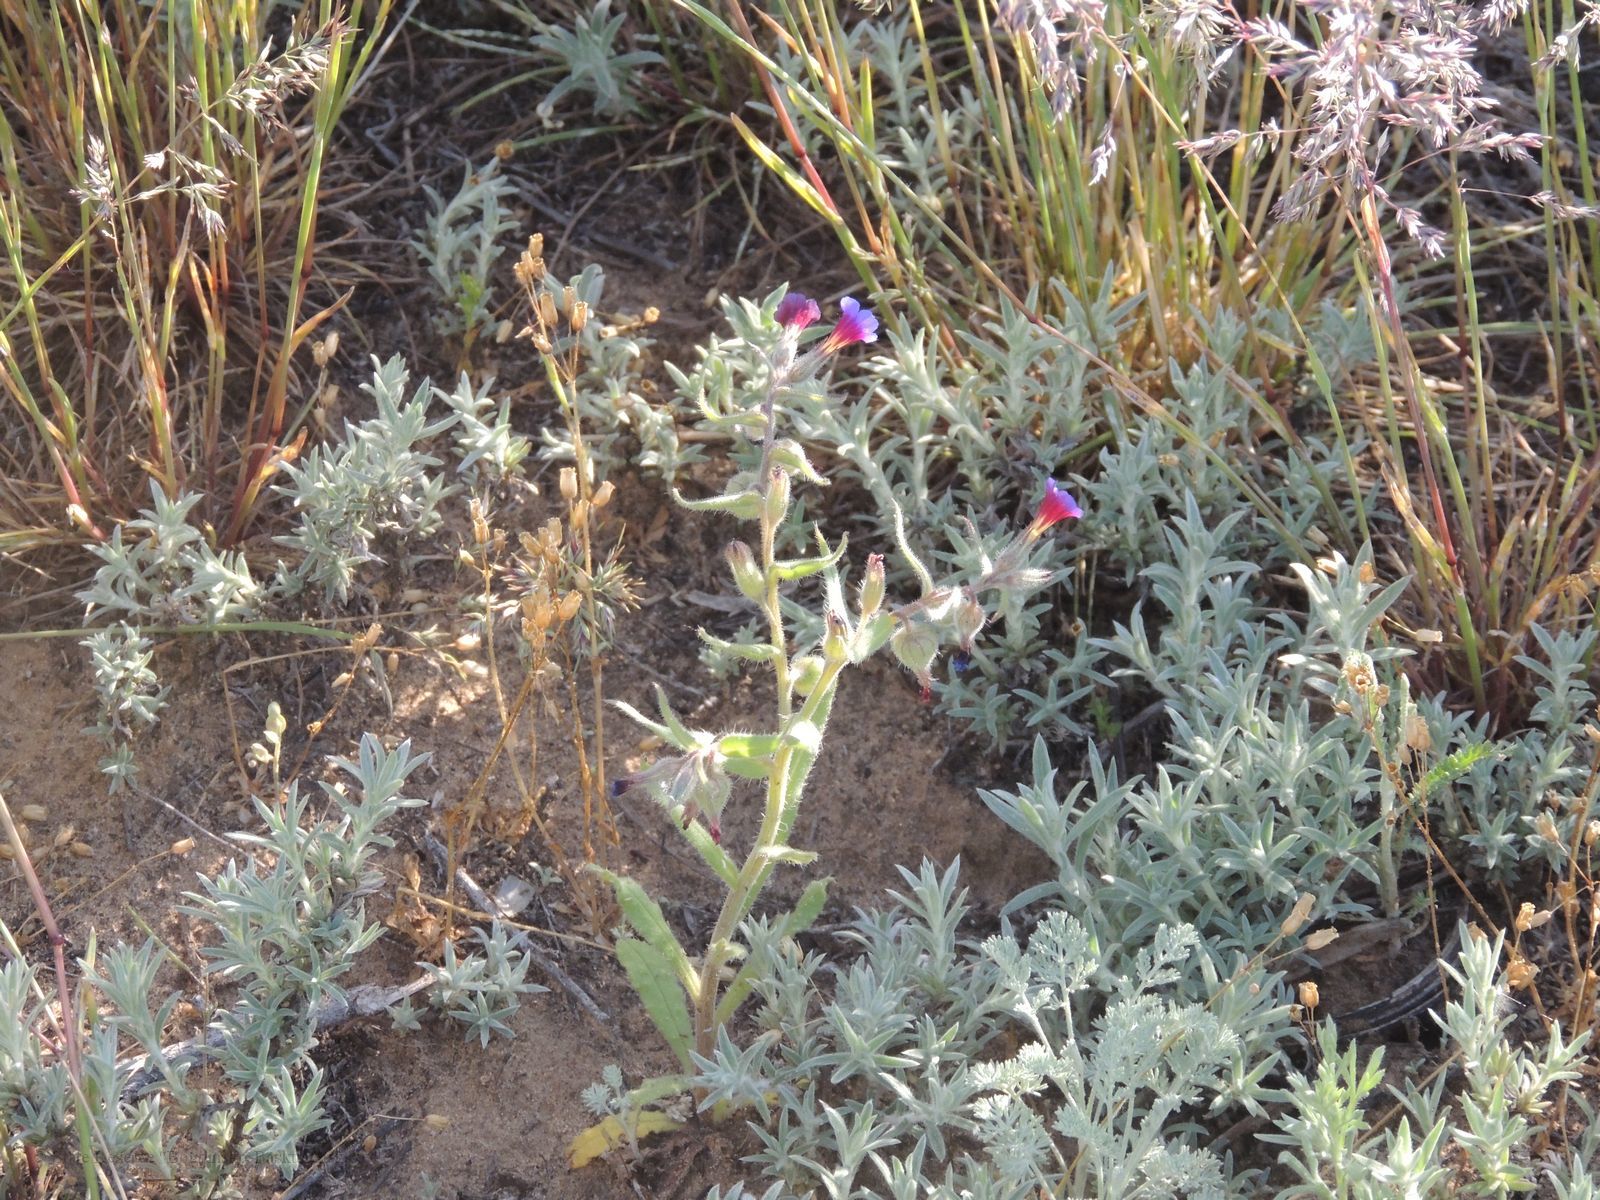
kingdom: Plantae
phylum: Tracheophyta
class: Magnoliopsida
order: Boraginales
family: Boraginaceae
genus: Nonea
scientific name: Nonea caspica
